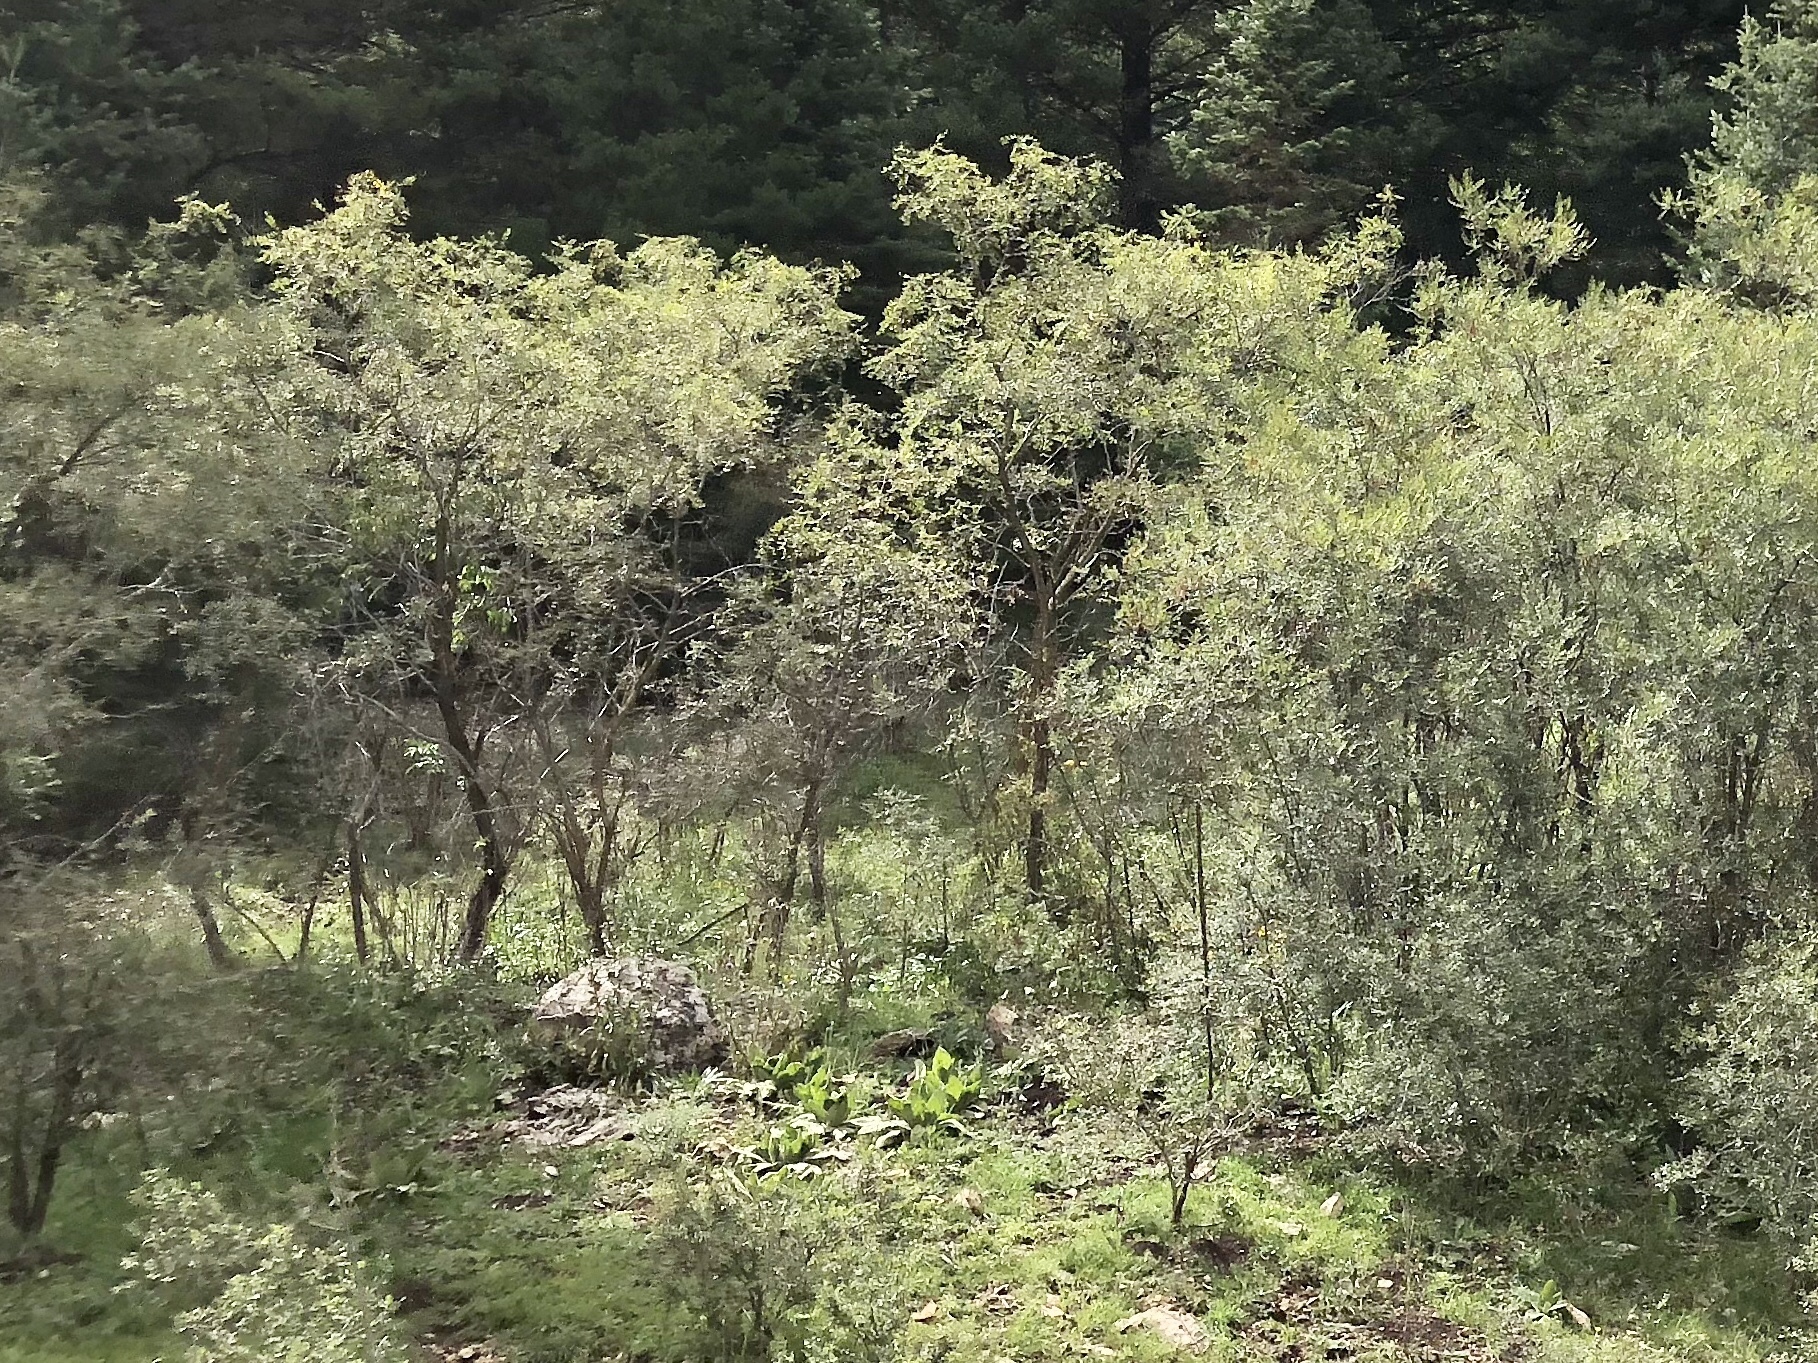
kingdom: Plantae
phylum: Tracheophyta
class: Magnoliopsida
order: Fabales
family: Fabaceae
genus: Robinia
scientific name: Robinia neomexicana
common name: New mexico locust
